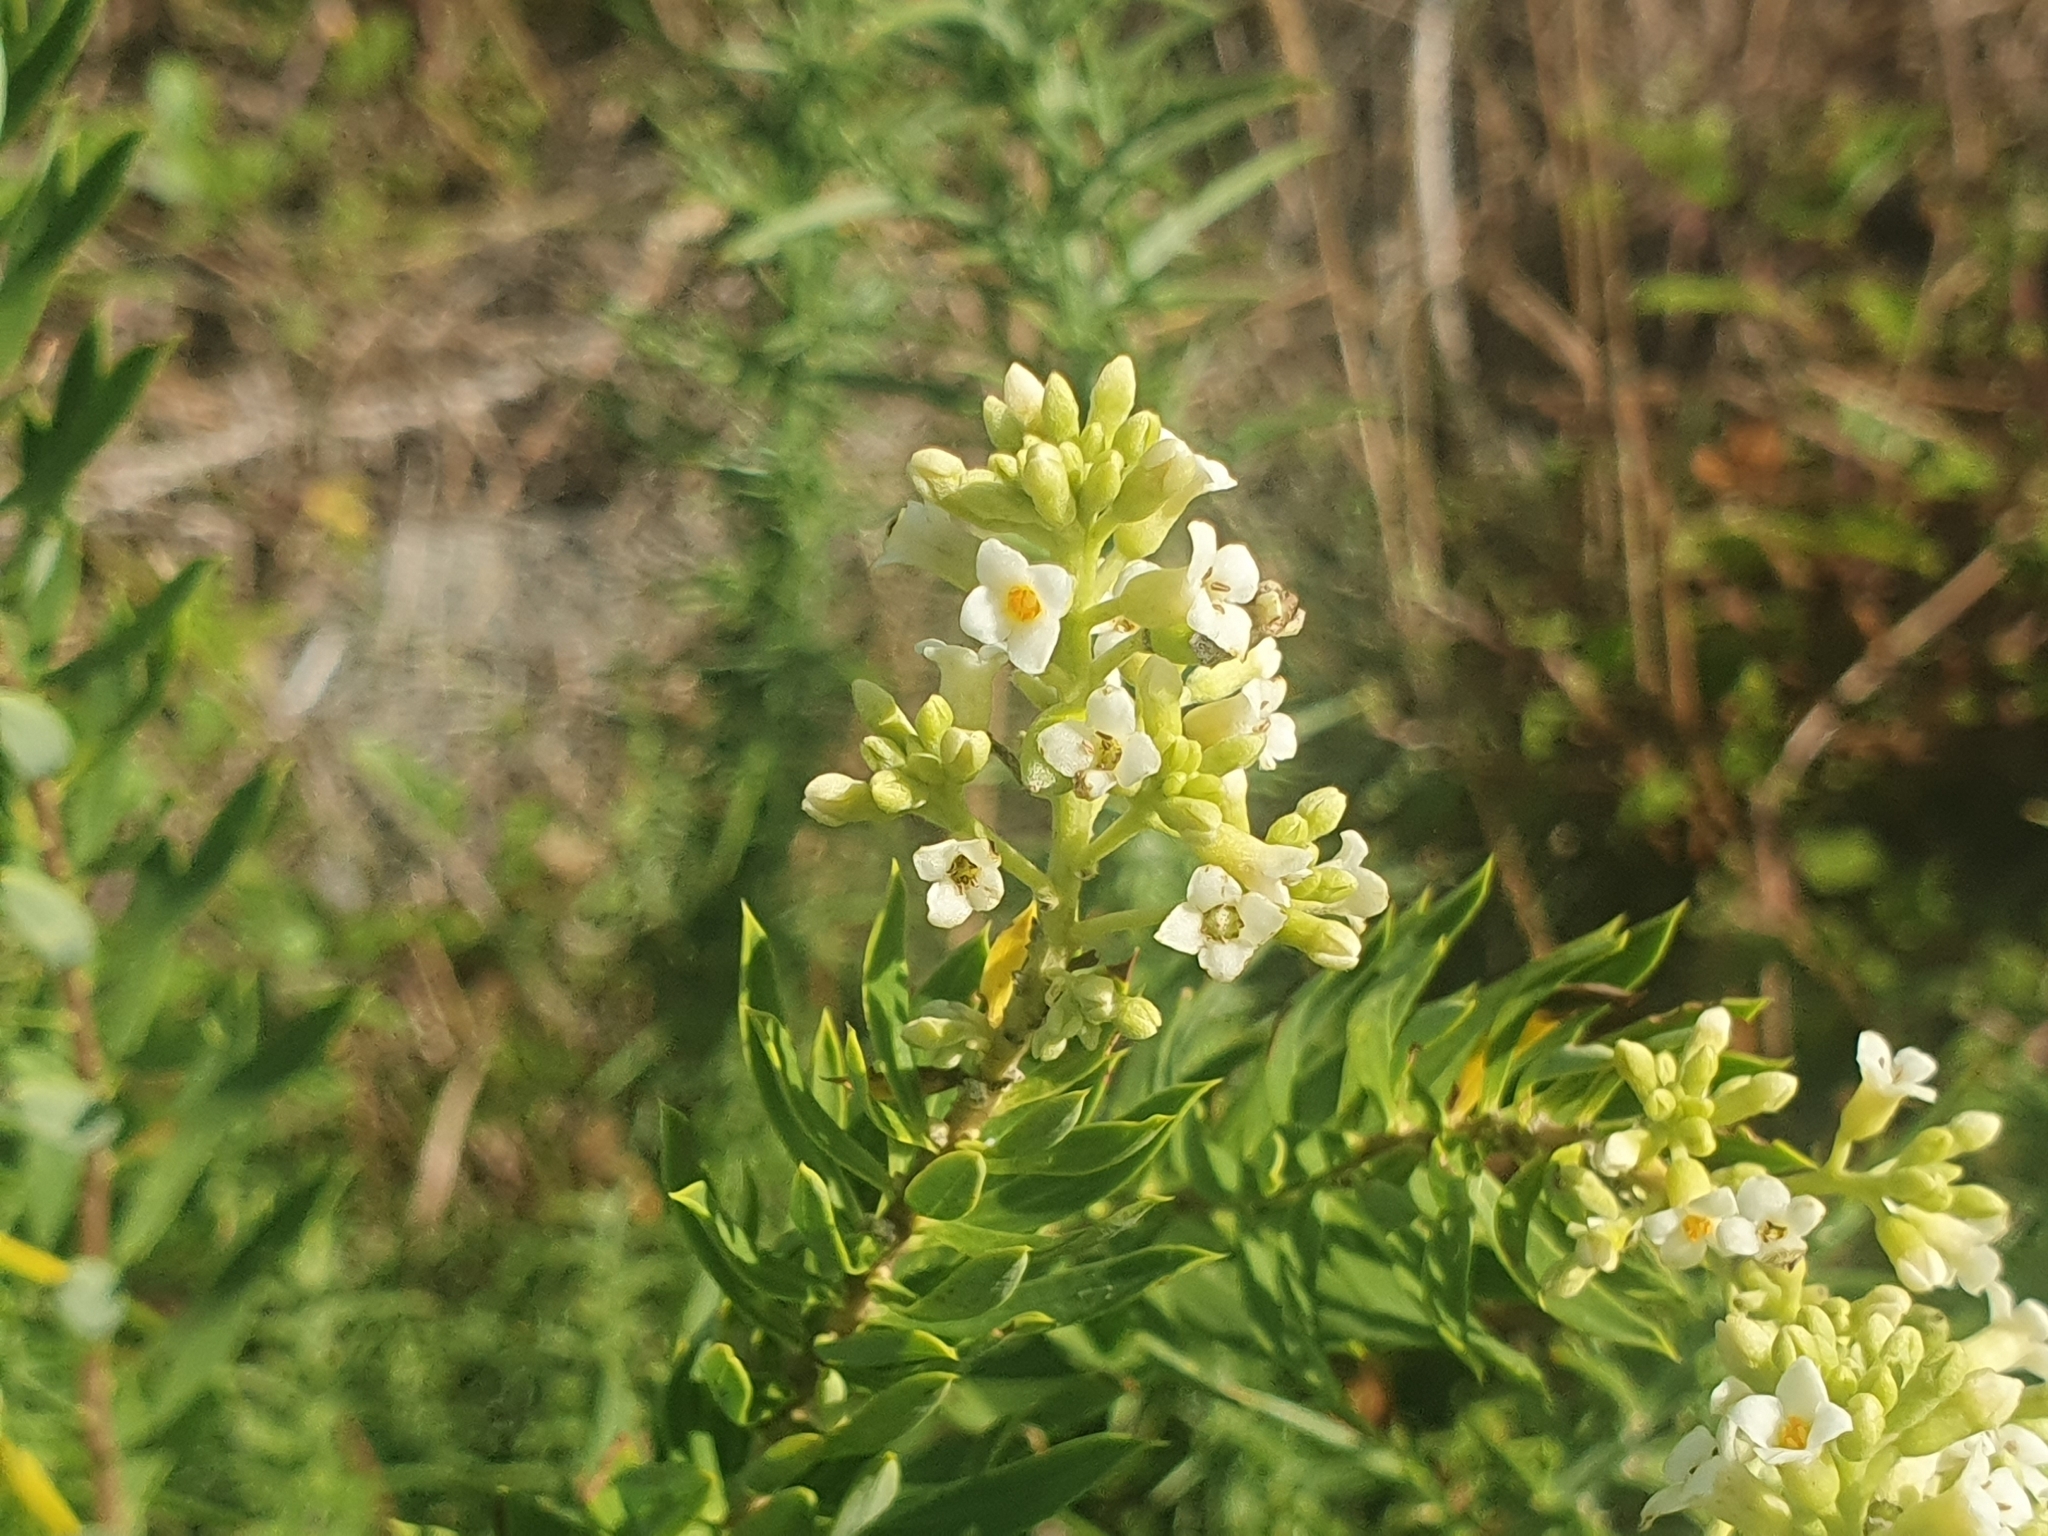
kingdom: Plantae
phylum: Tracheophyta
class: Magnoliopsida
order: Malvales
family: Thymelaeaceae
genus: Daphne
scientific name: Daphne gnidium
